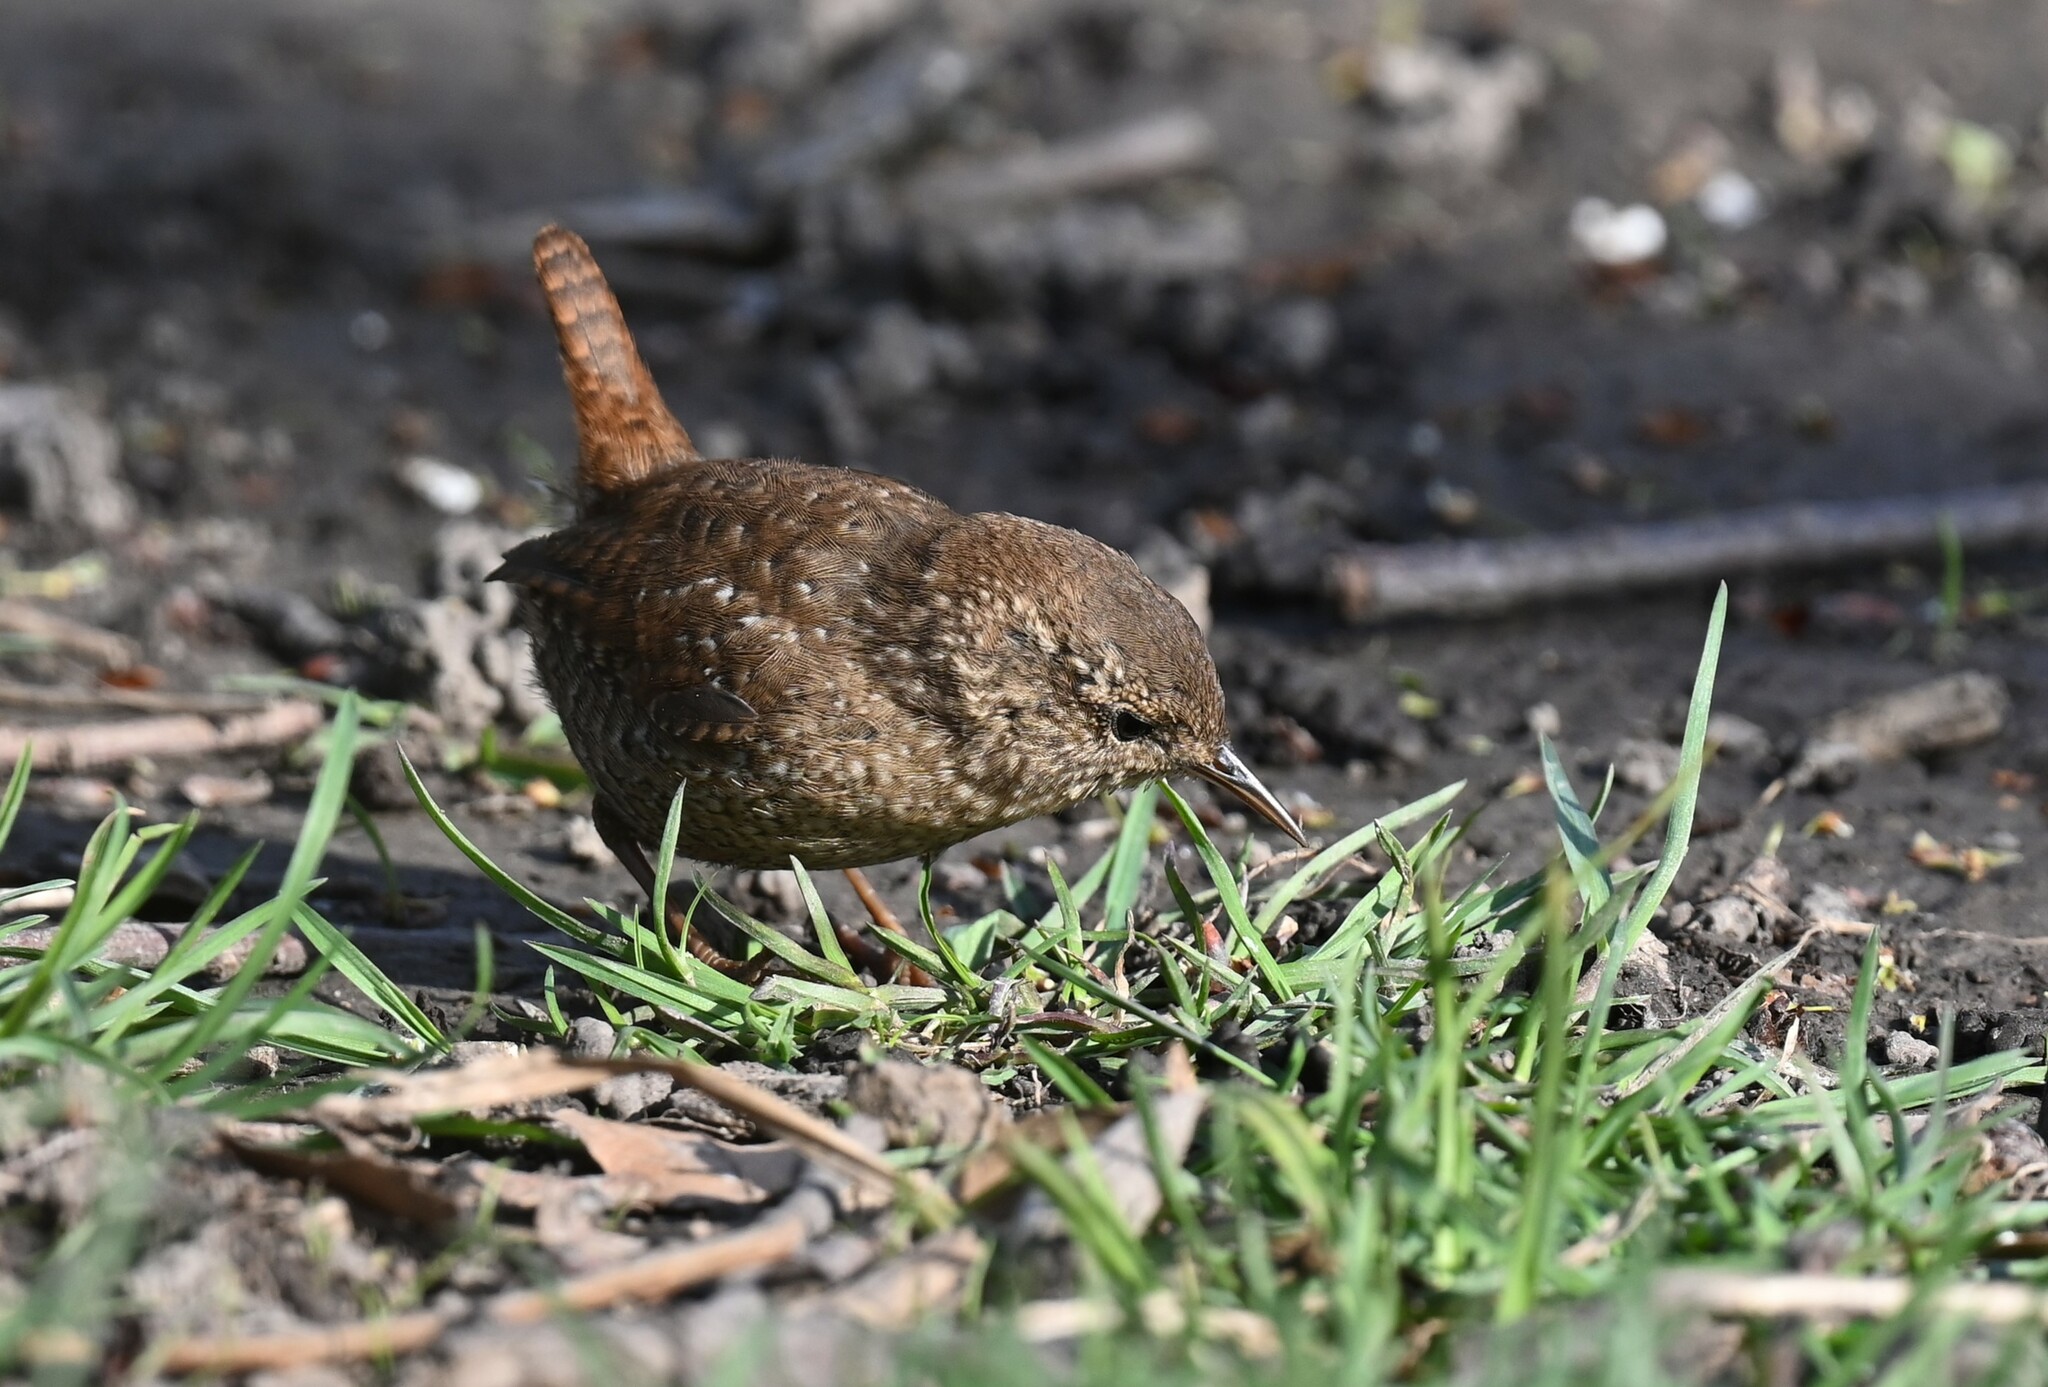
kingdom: Animalia
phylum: Chordata
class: Aves
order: Passeriformes
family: Troglodytidae
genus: Troglodytes
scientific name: Troglodytes hiemalis
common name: Winter wren
